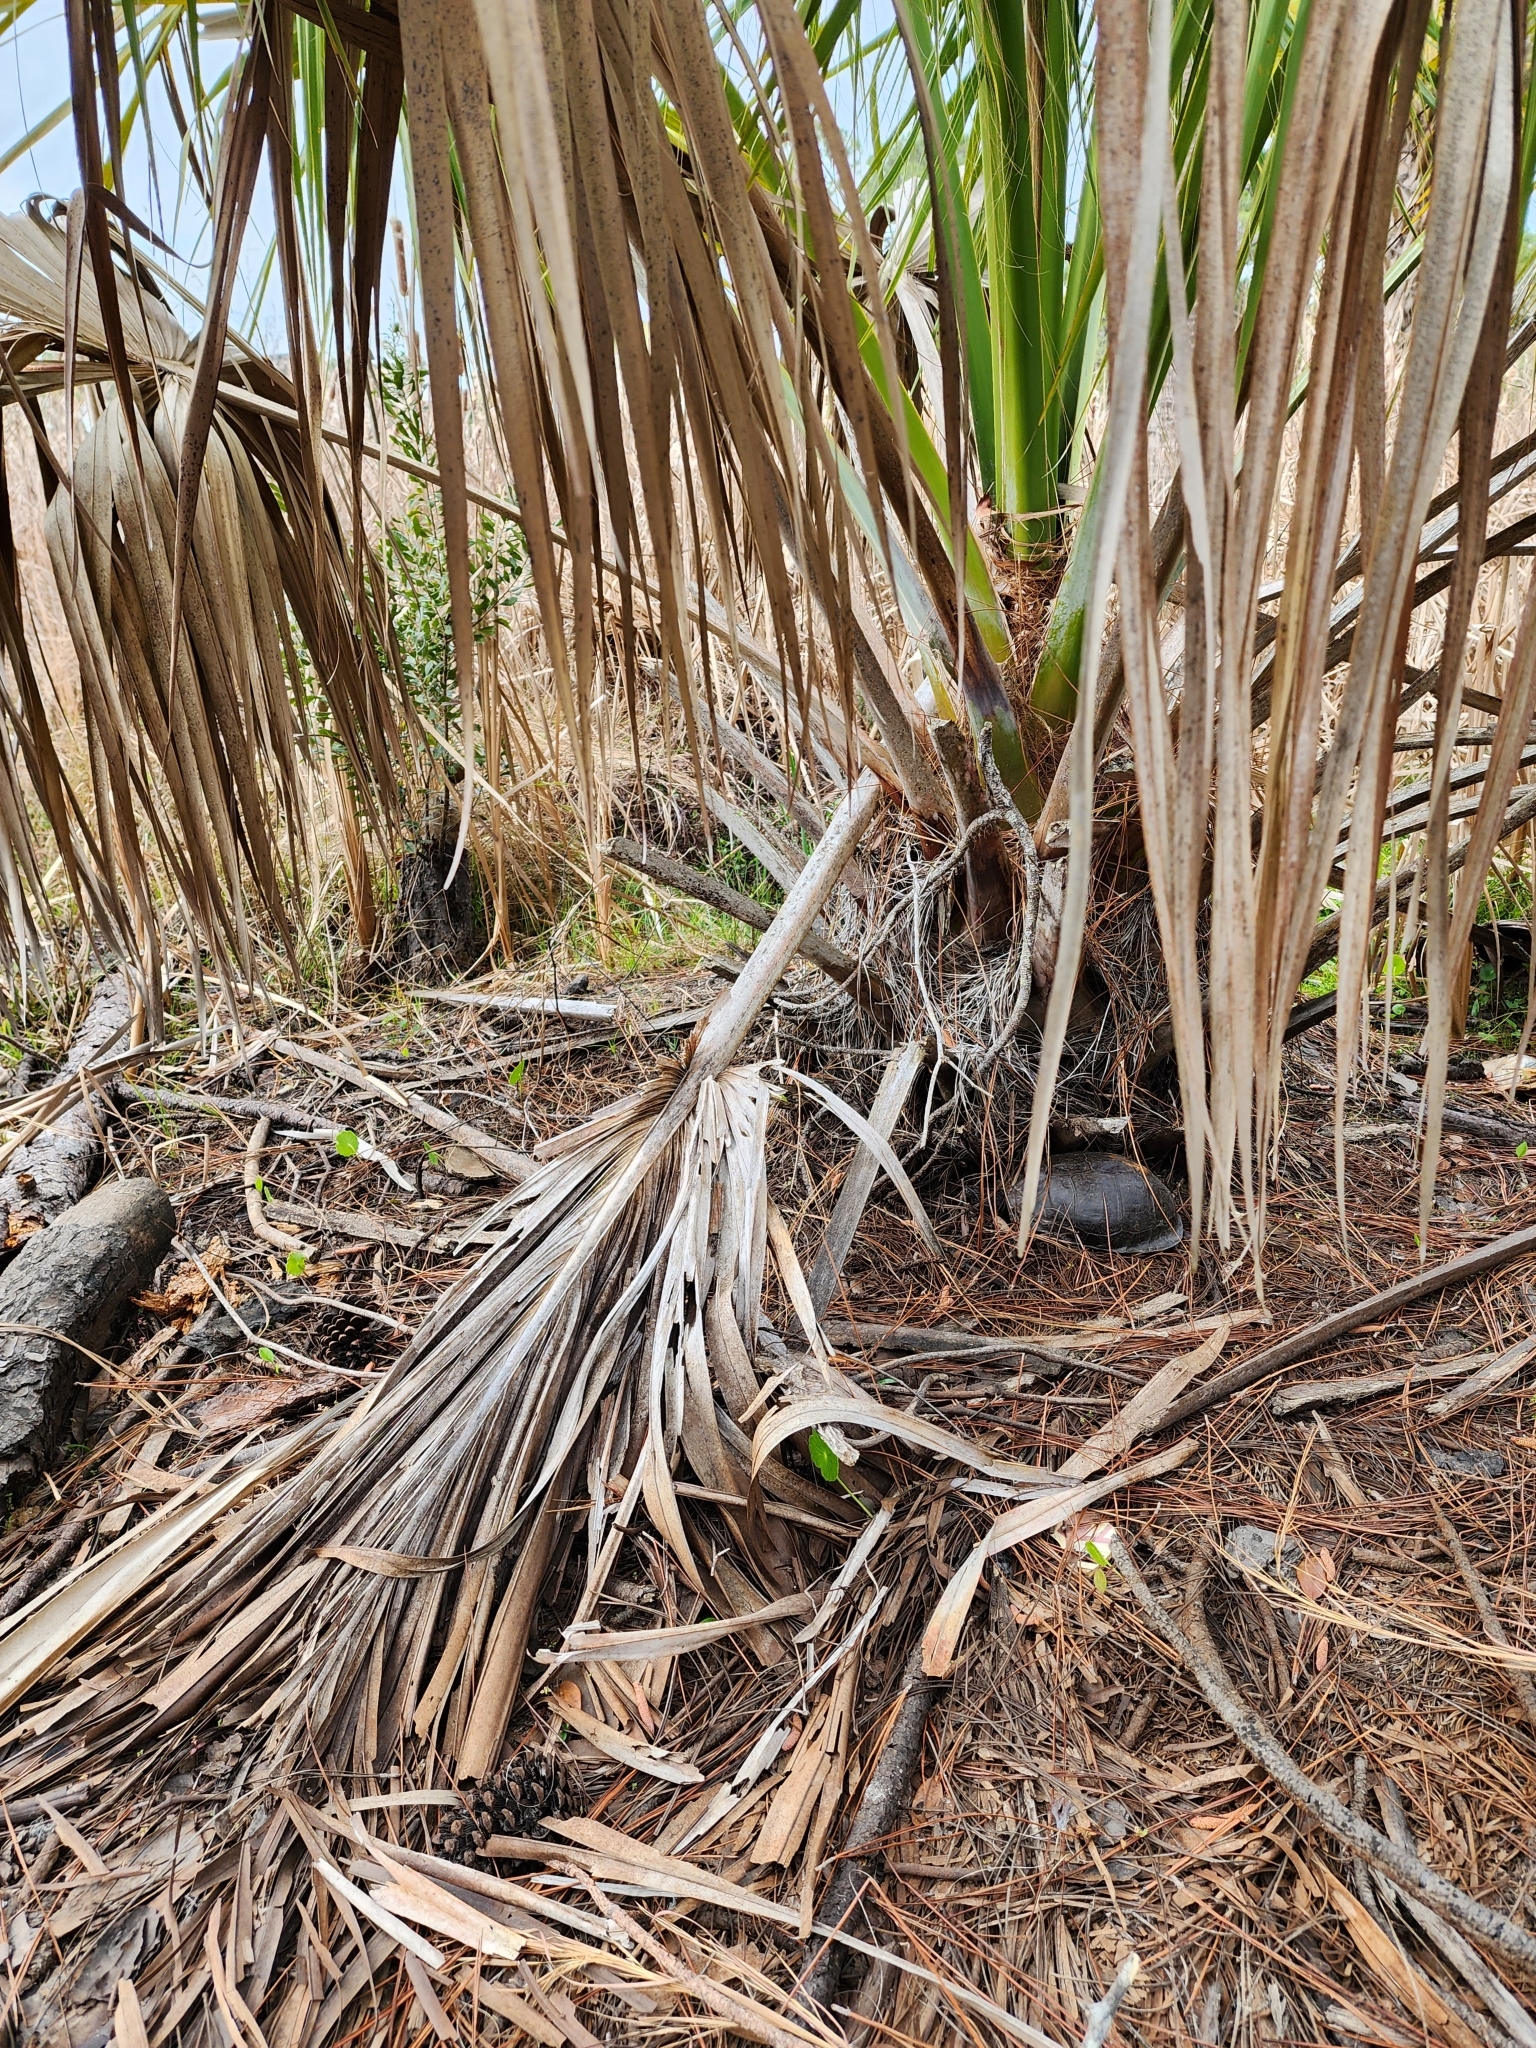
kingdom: Animalia
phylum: Chordata
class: Testudines
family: Emydidae
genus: Terrapene
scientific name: Terrapene carolina
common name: Common box turtle
